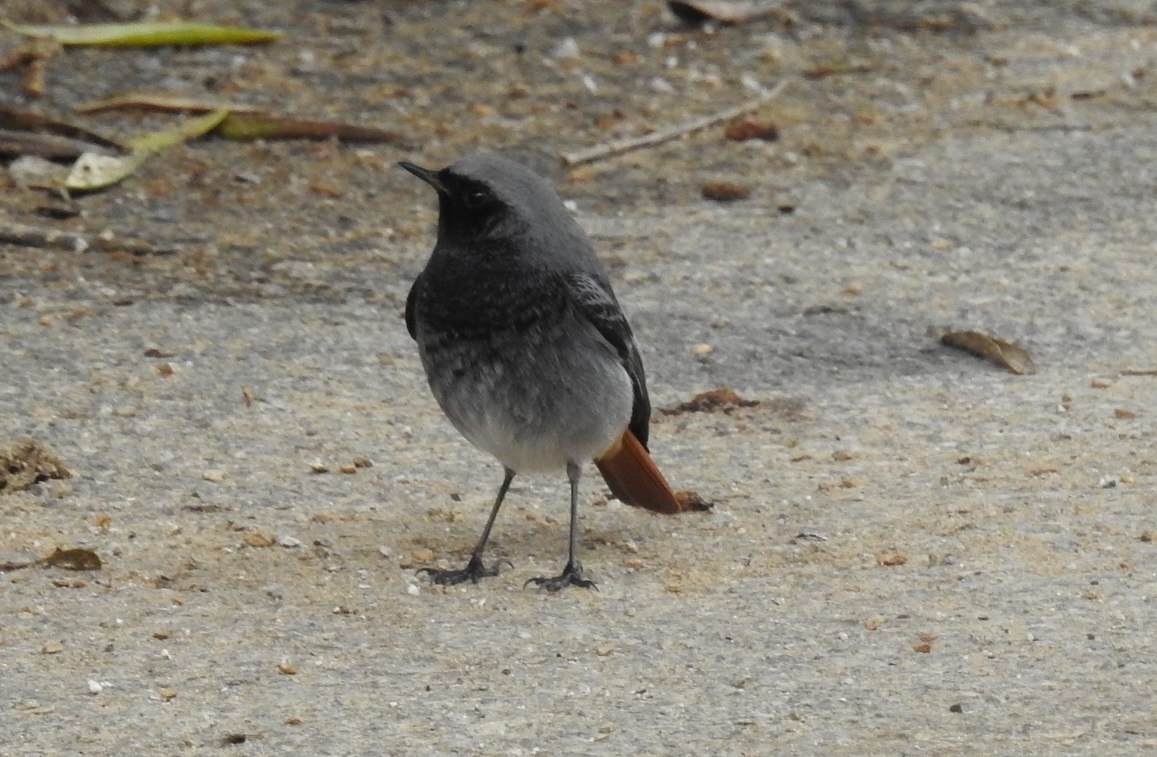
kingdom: Animalia
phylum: Chordata
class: Aves
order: Passeriformes
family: Muscicapidae
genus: Phoenicurus
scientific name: Phoenicurus ochruros
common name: Black redstart
